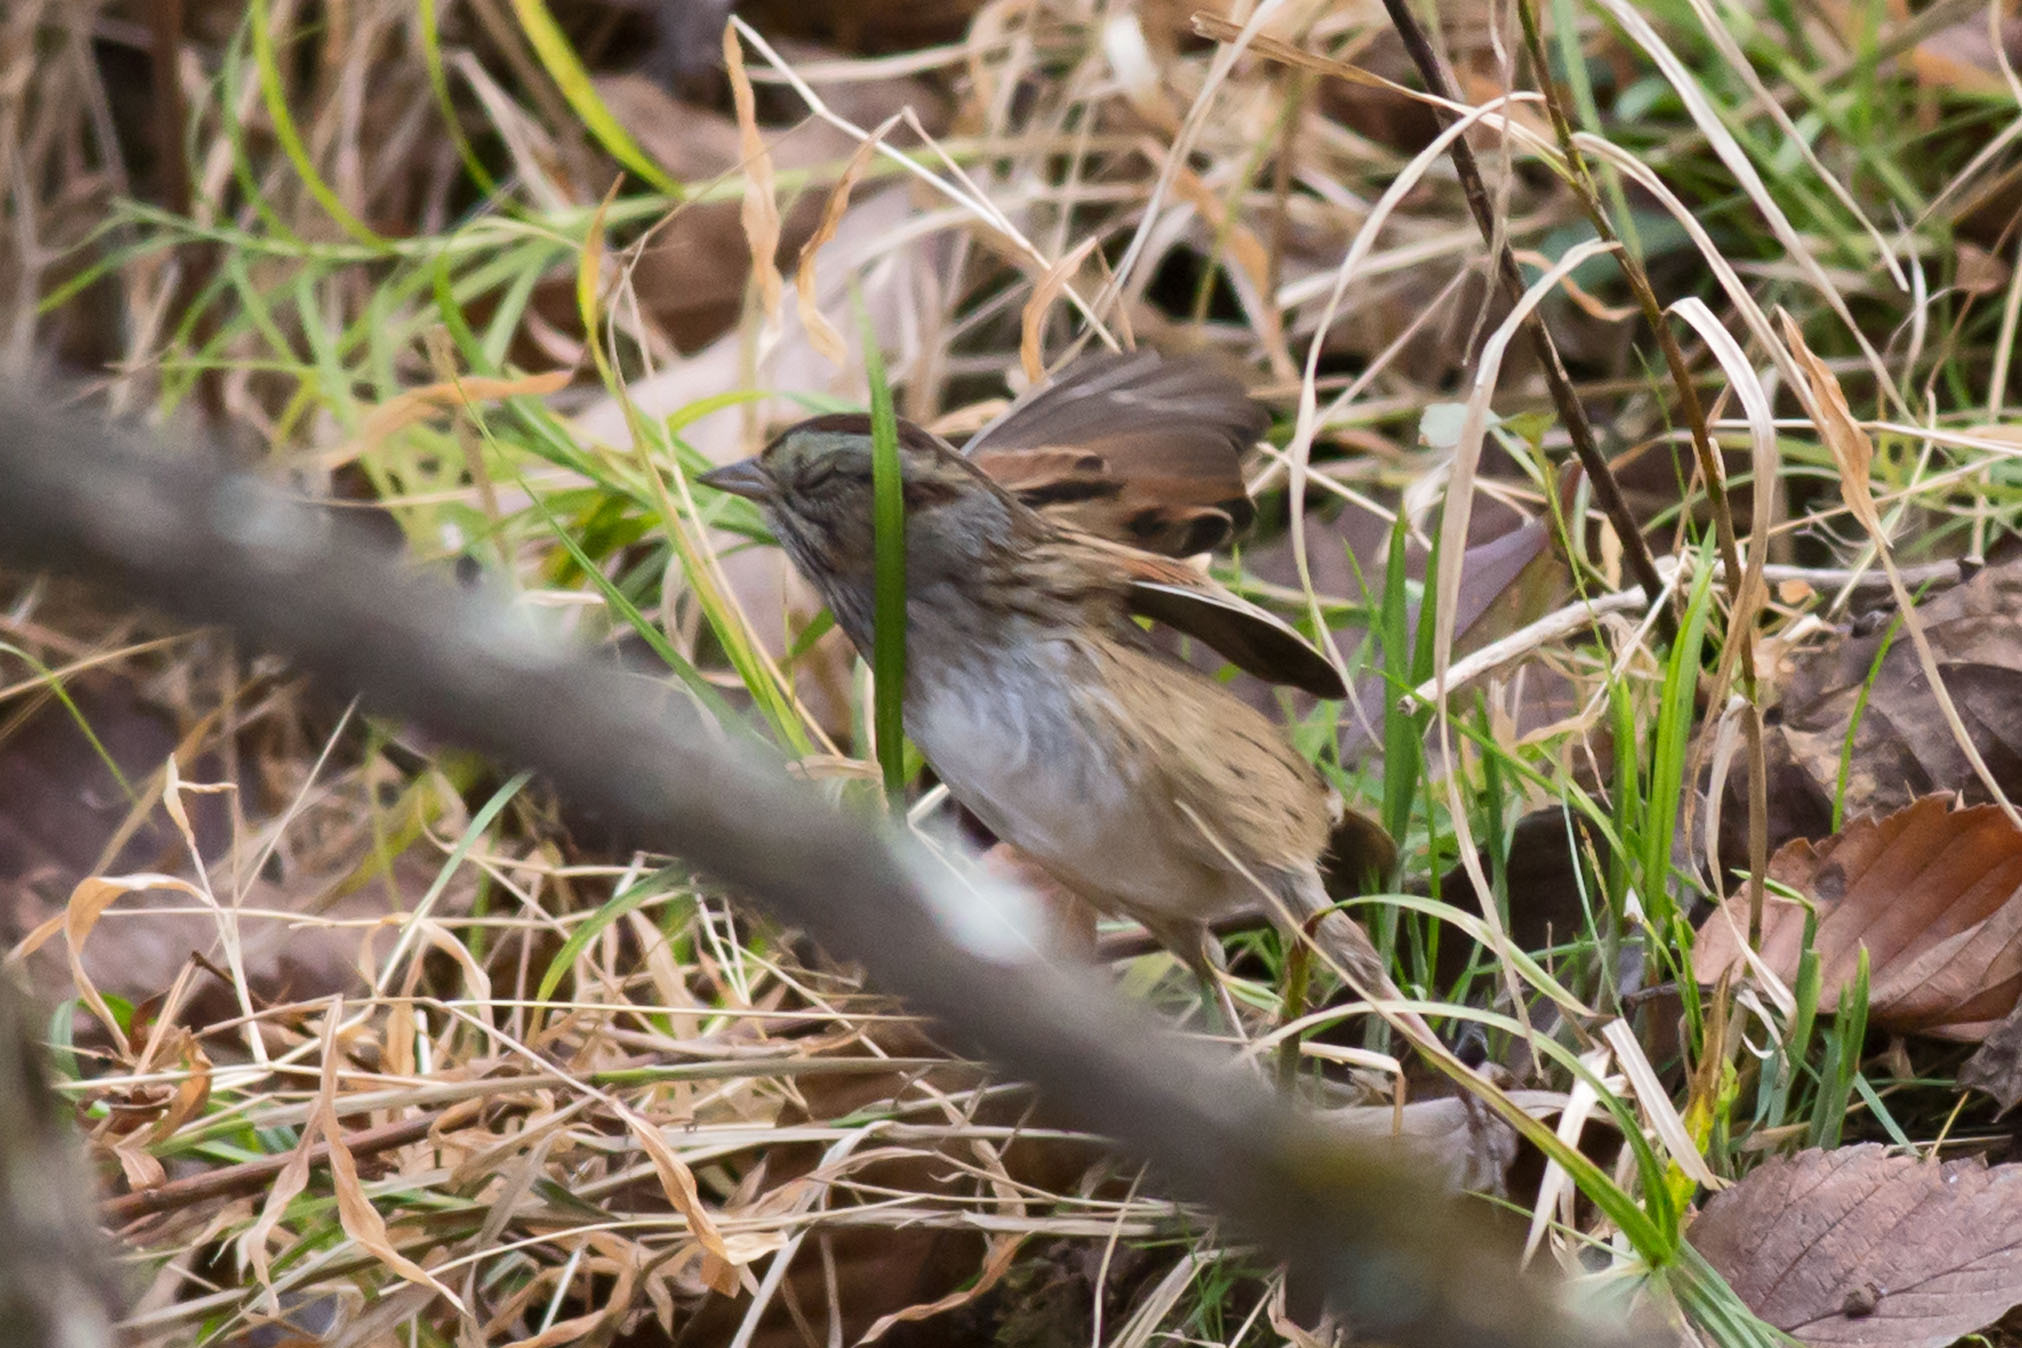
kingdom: Animalia
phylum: Chordata
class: Aves
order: Passeriformes
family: Passerellidae
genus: Melospiza
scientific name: Melospiza georgiana
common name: Swamp sparrow
